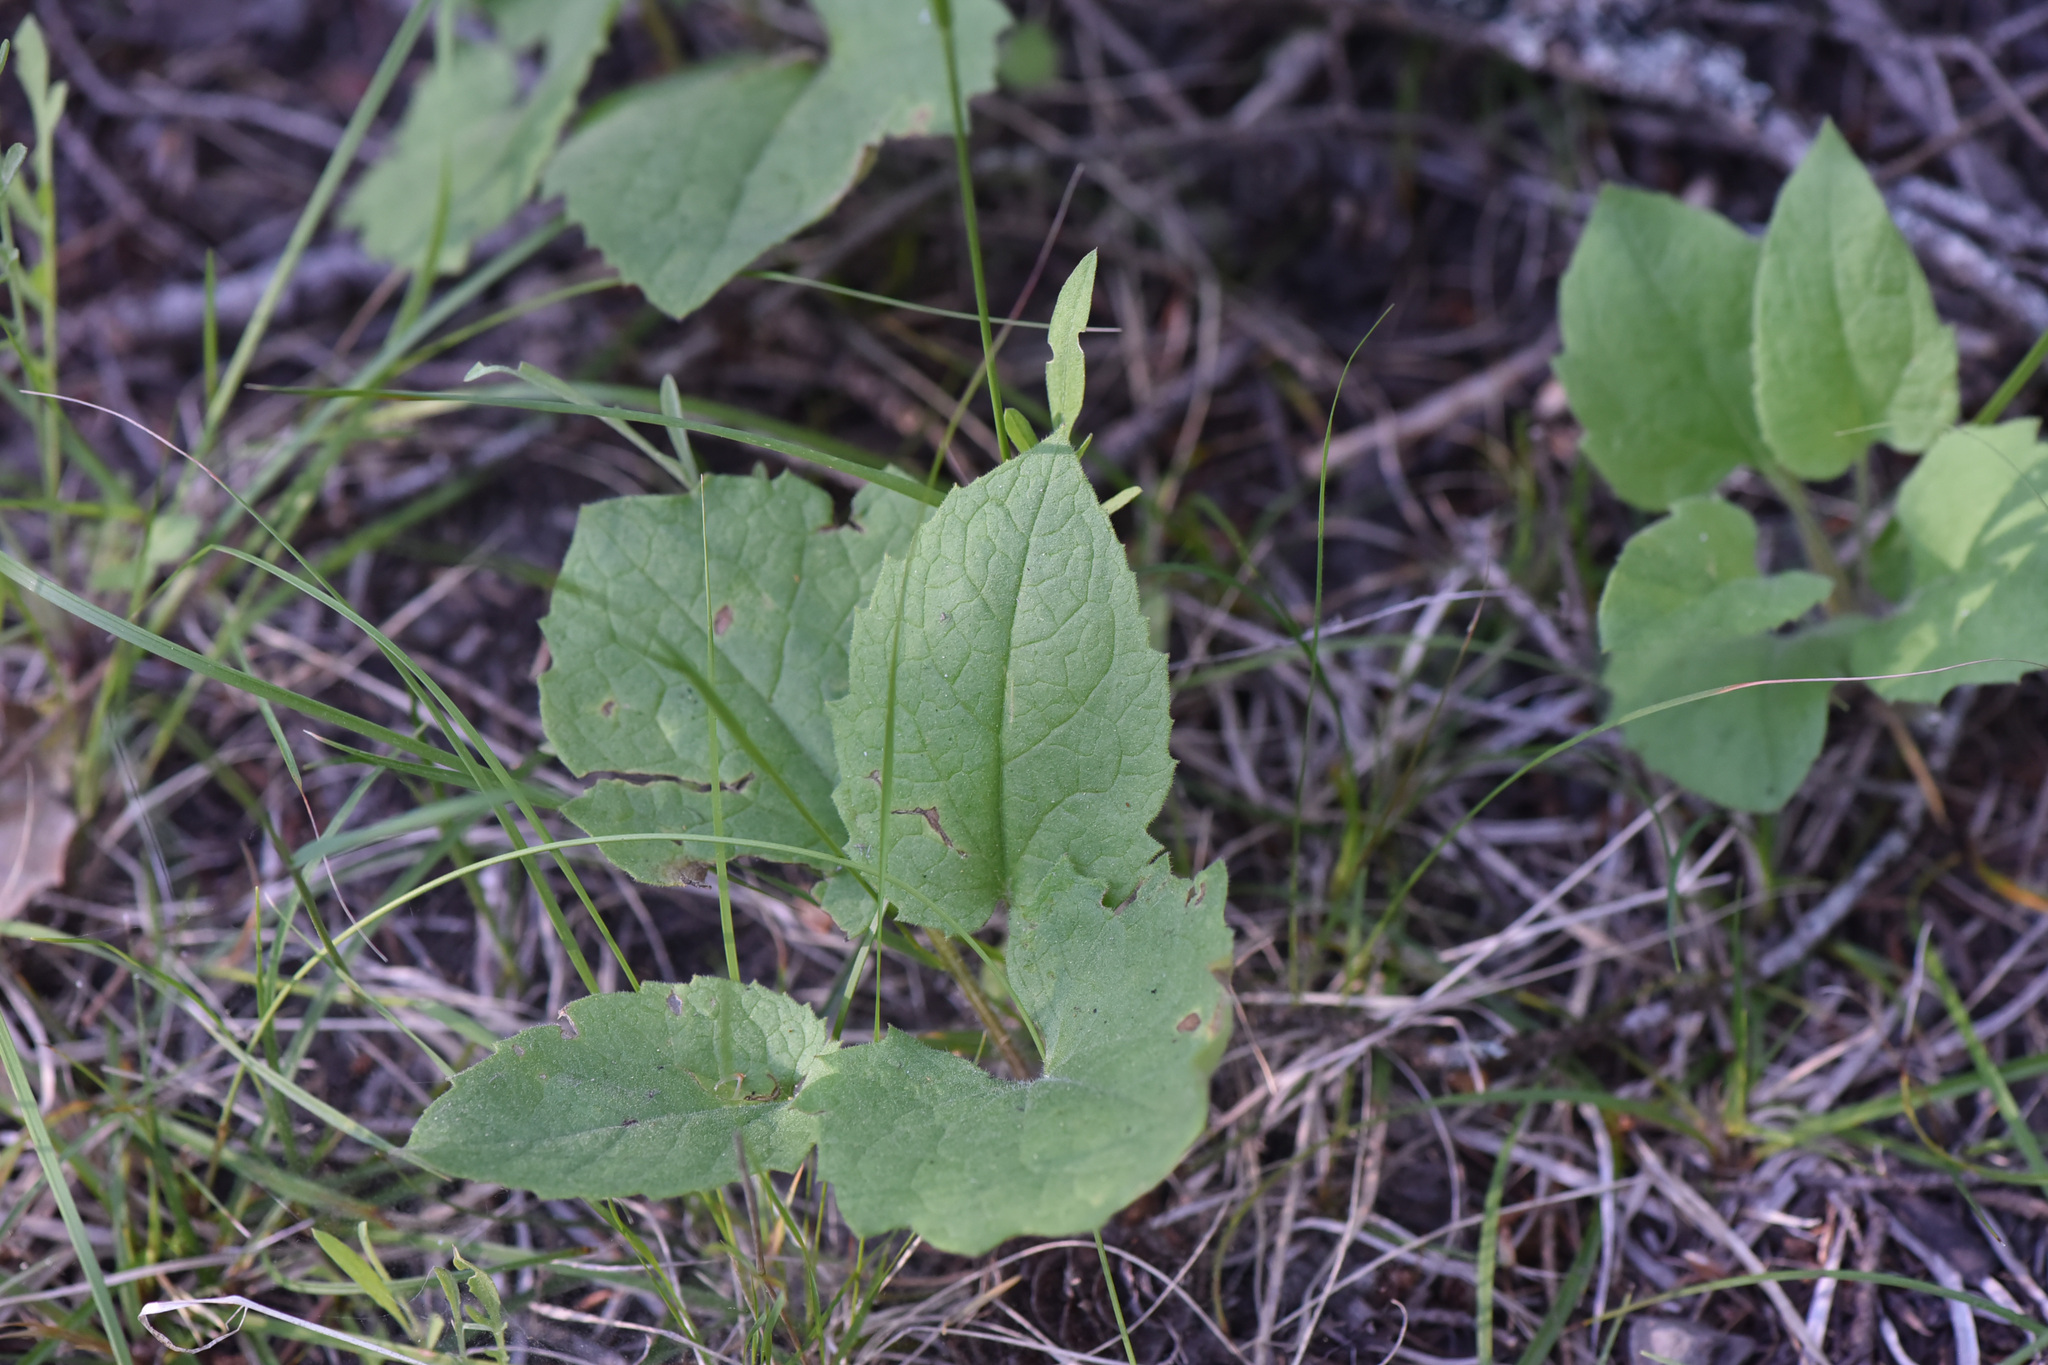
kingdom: Plantae
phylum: Tracheophyta
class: Magnoliopsida
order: Asterales
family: Asteraceae
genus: Arnica
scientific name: Arnica cordifolia
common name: Heart-leaf arnica
